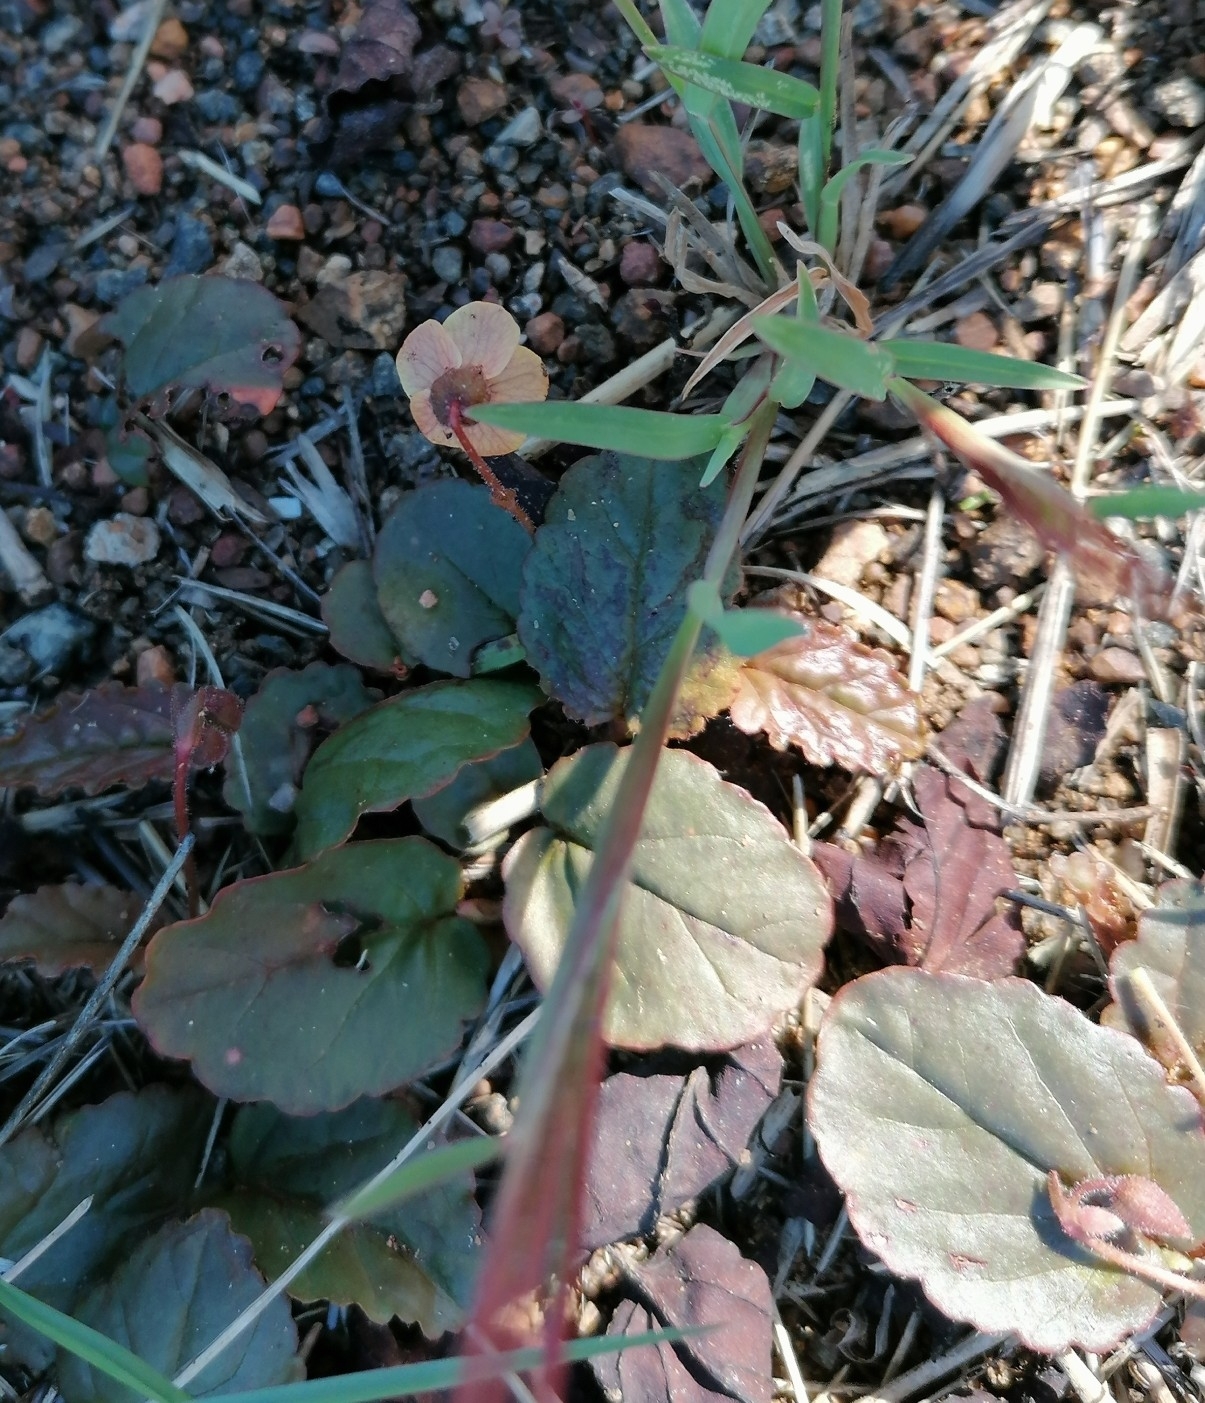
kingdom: Plantae
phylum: Tracheophyta
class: Magnoliopsida
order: Malvales
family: Malvaceae
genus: Hermannia
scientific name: Hermannia depressa
